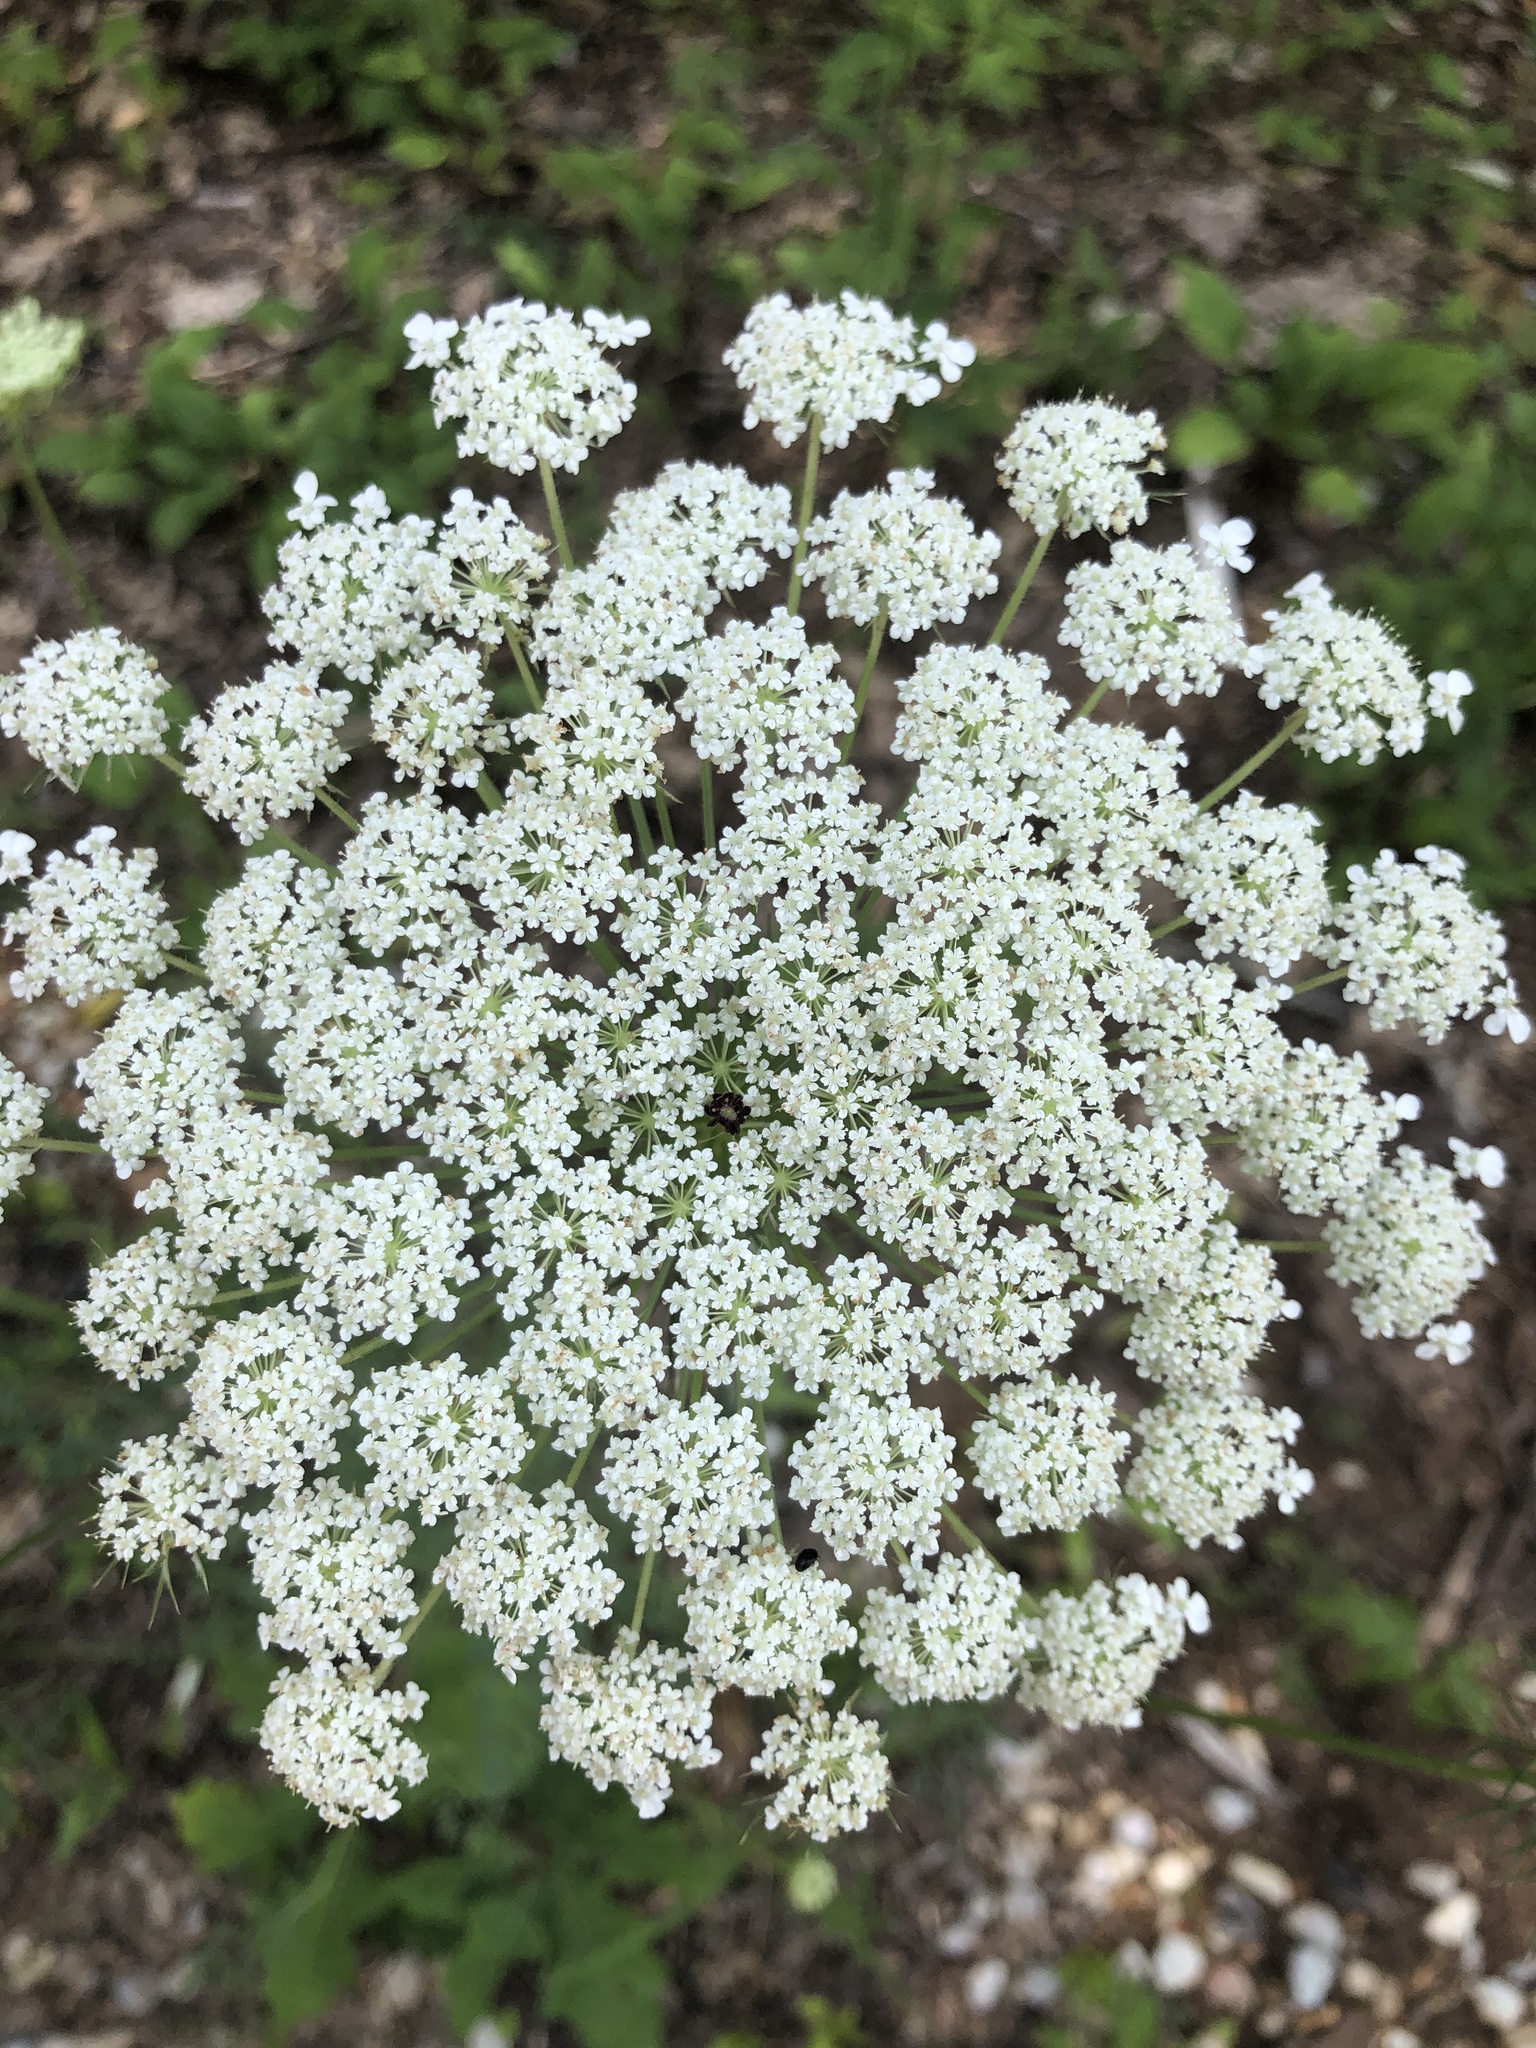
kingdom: Plantae
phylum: Tracheophyta
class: Magnoliopsida
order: Apiales
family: Apiaceae
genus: Daucus
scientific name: Daucus carota
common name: Wild carrot
